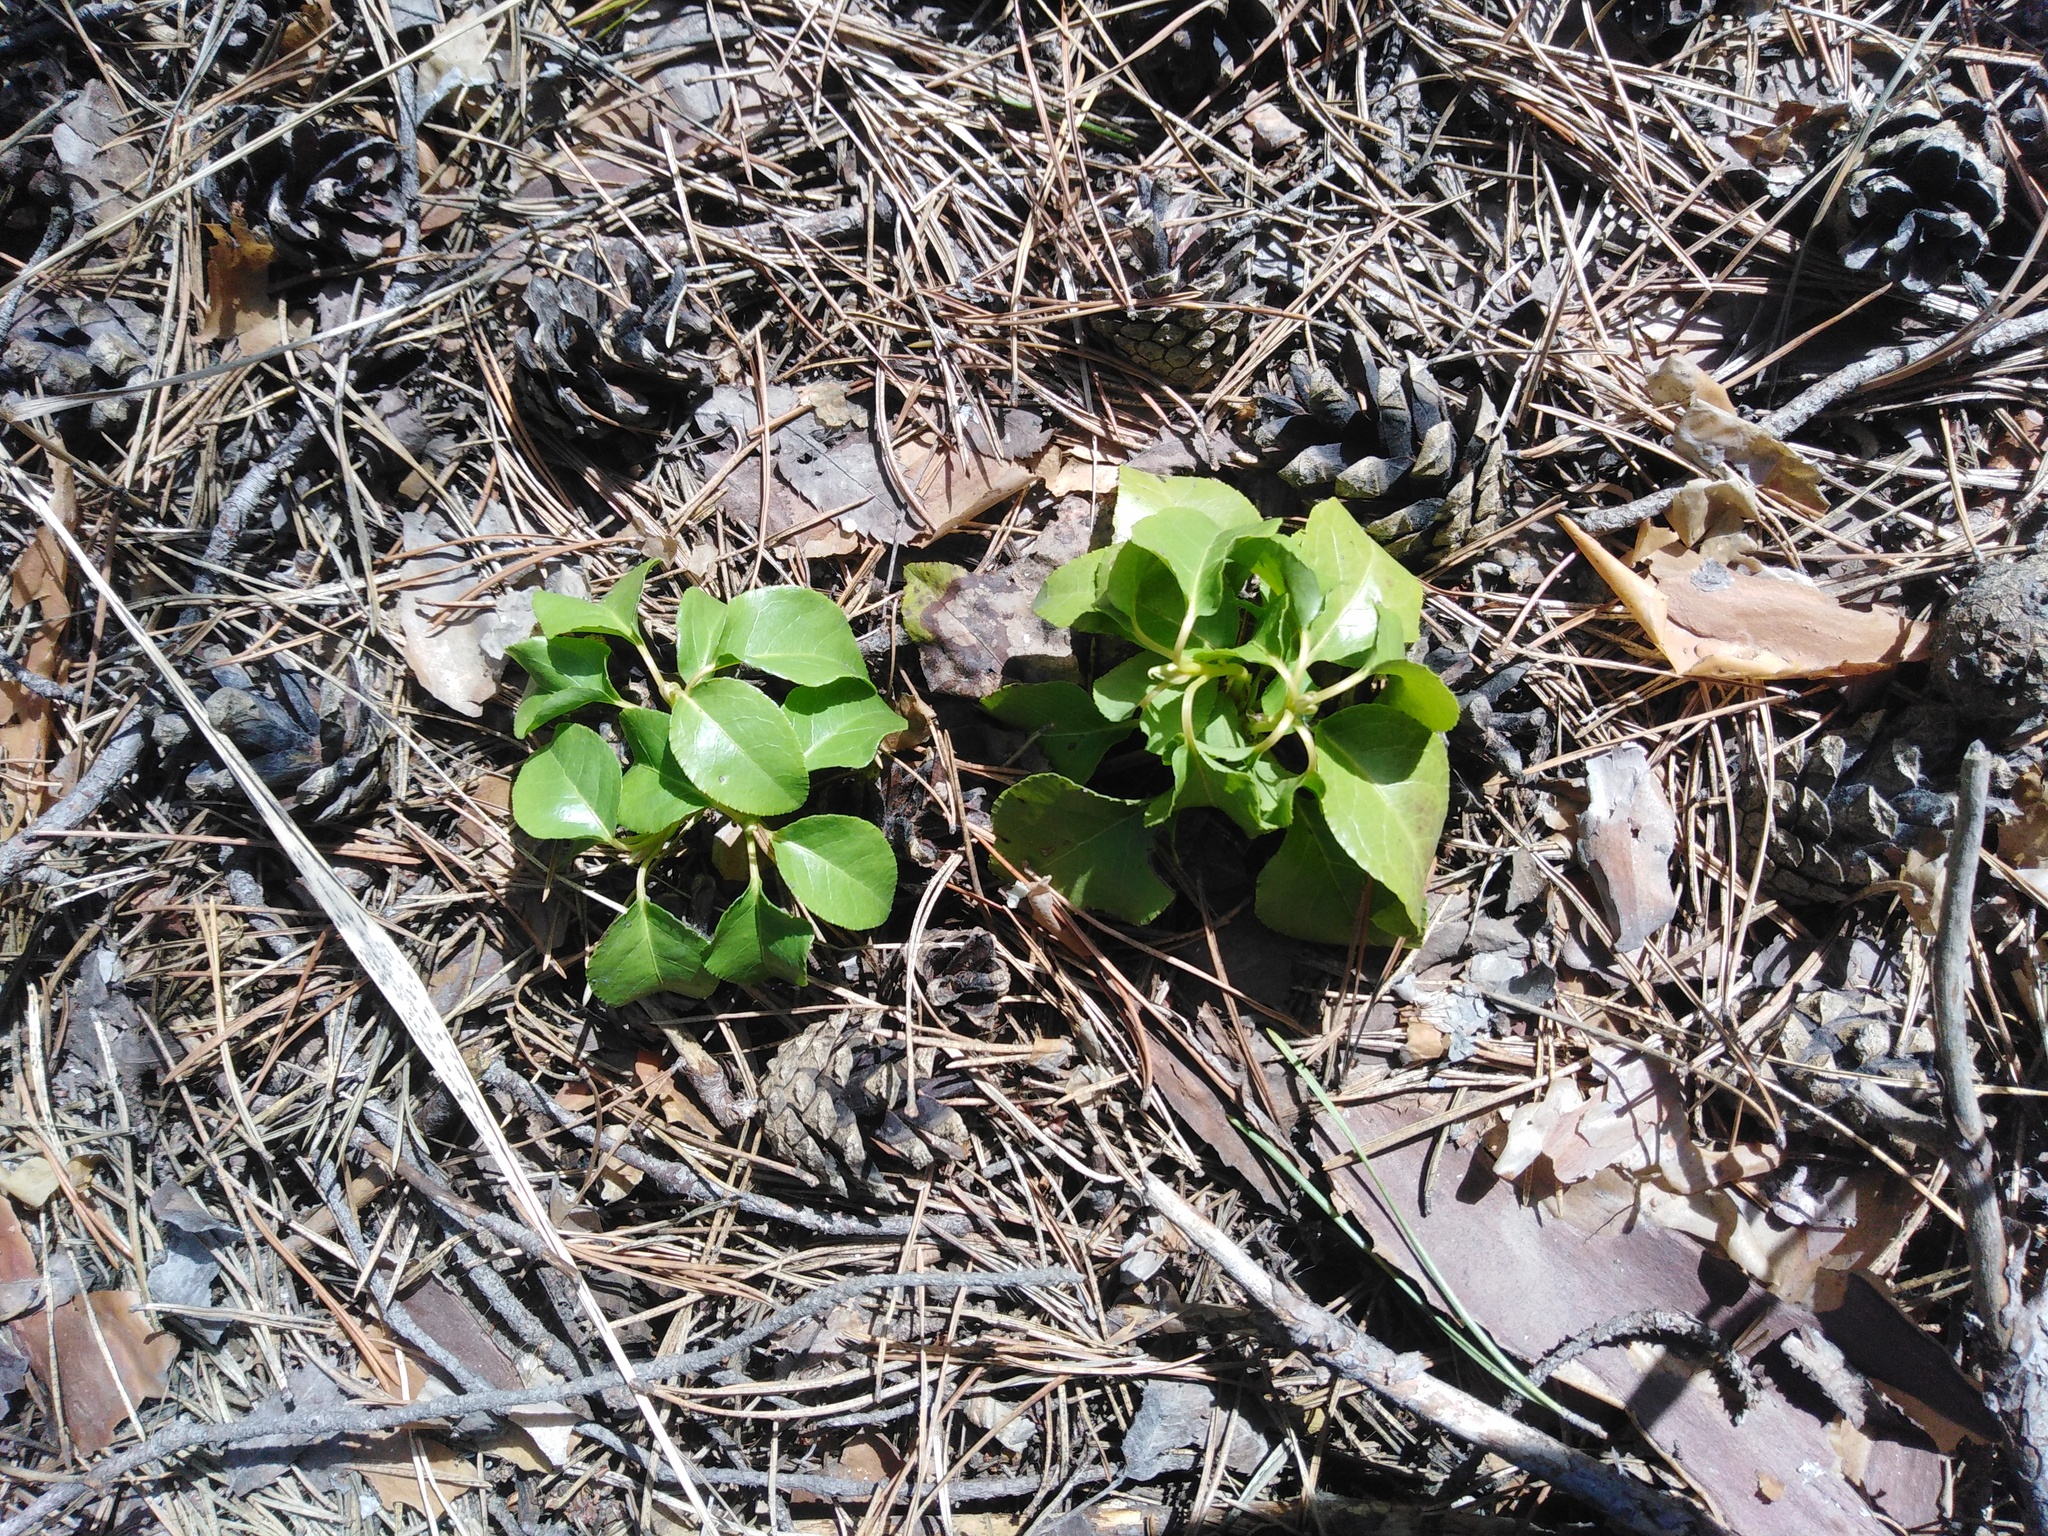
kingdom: Plantae
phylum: Tracheophyta
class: Magnoliopsida
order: Ericales
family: Ericaceae
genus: Orthilia
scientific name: Orthilia secunda
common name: One-sided orthilia
